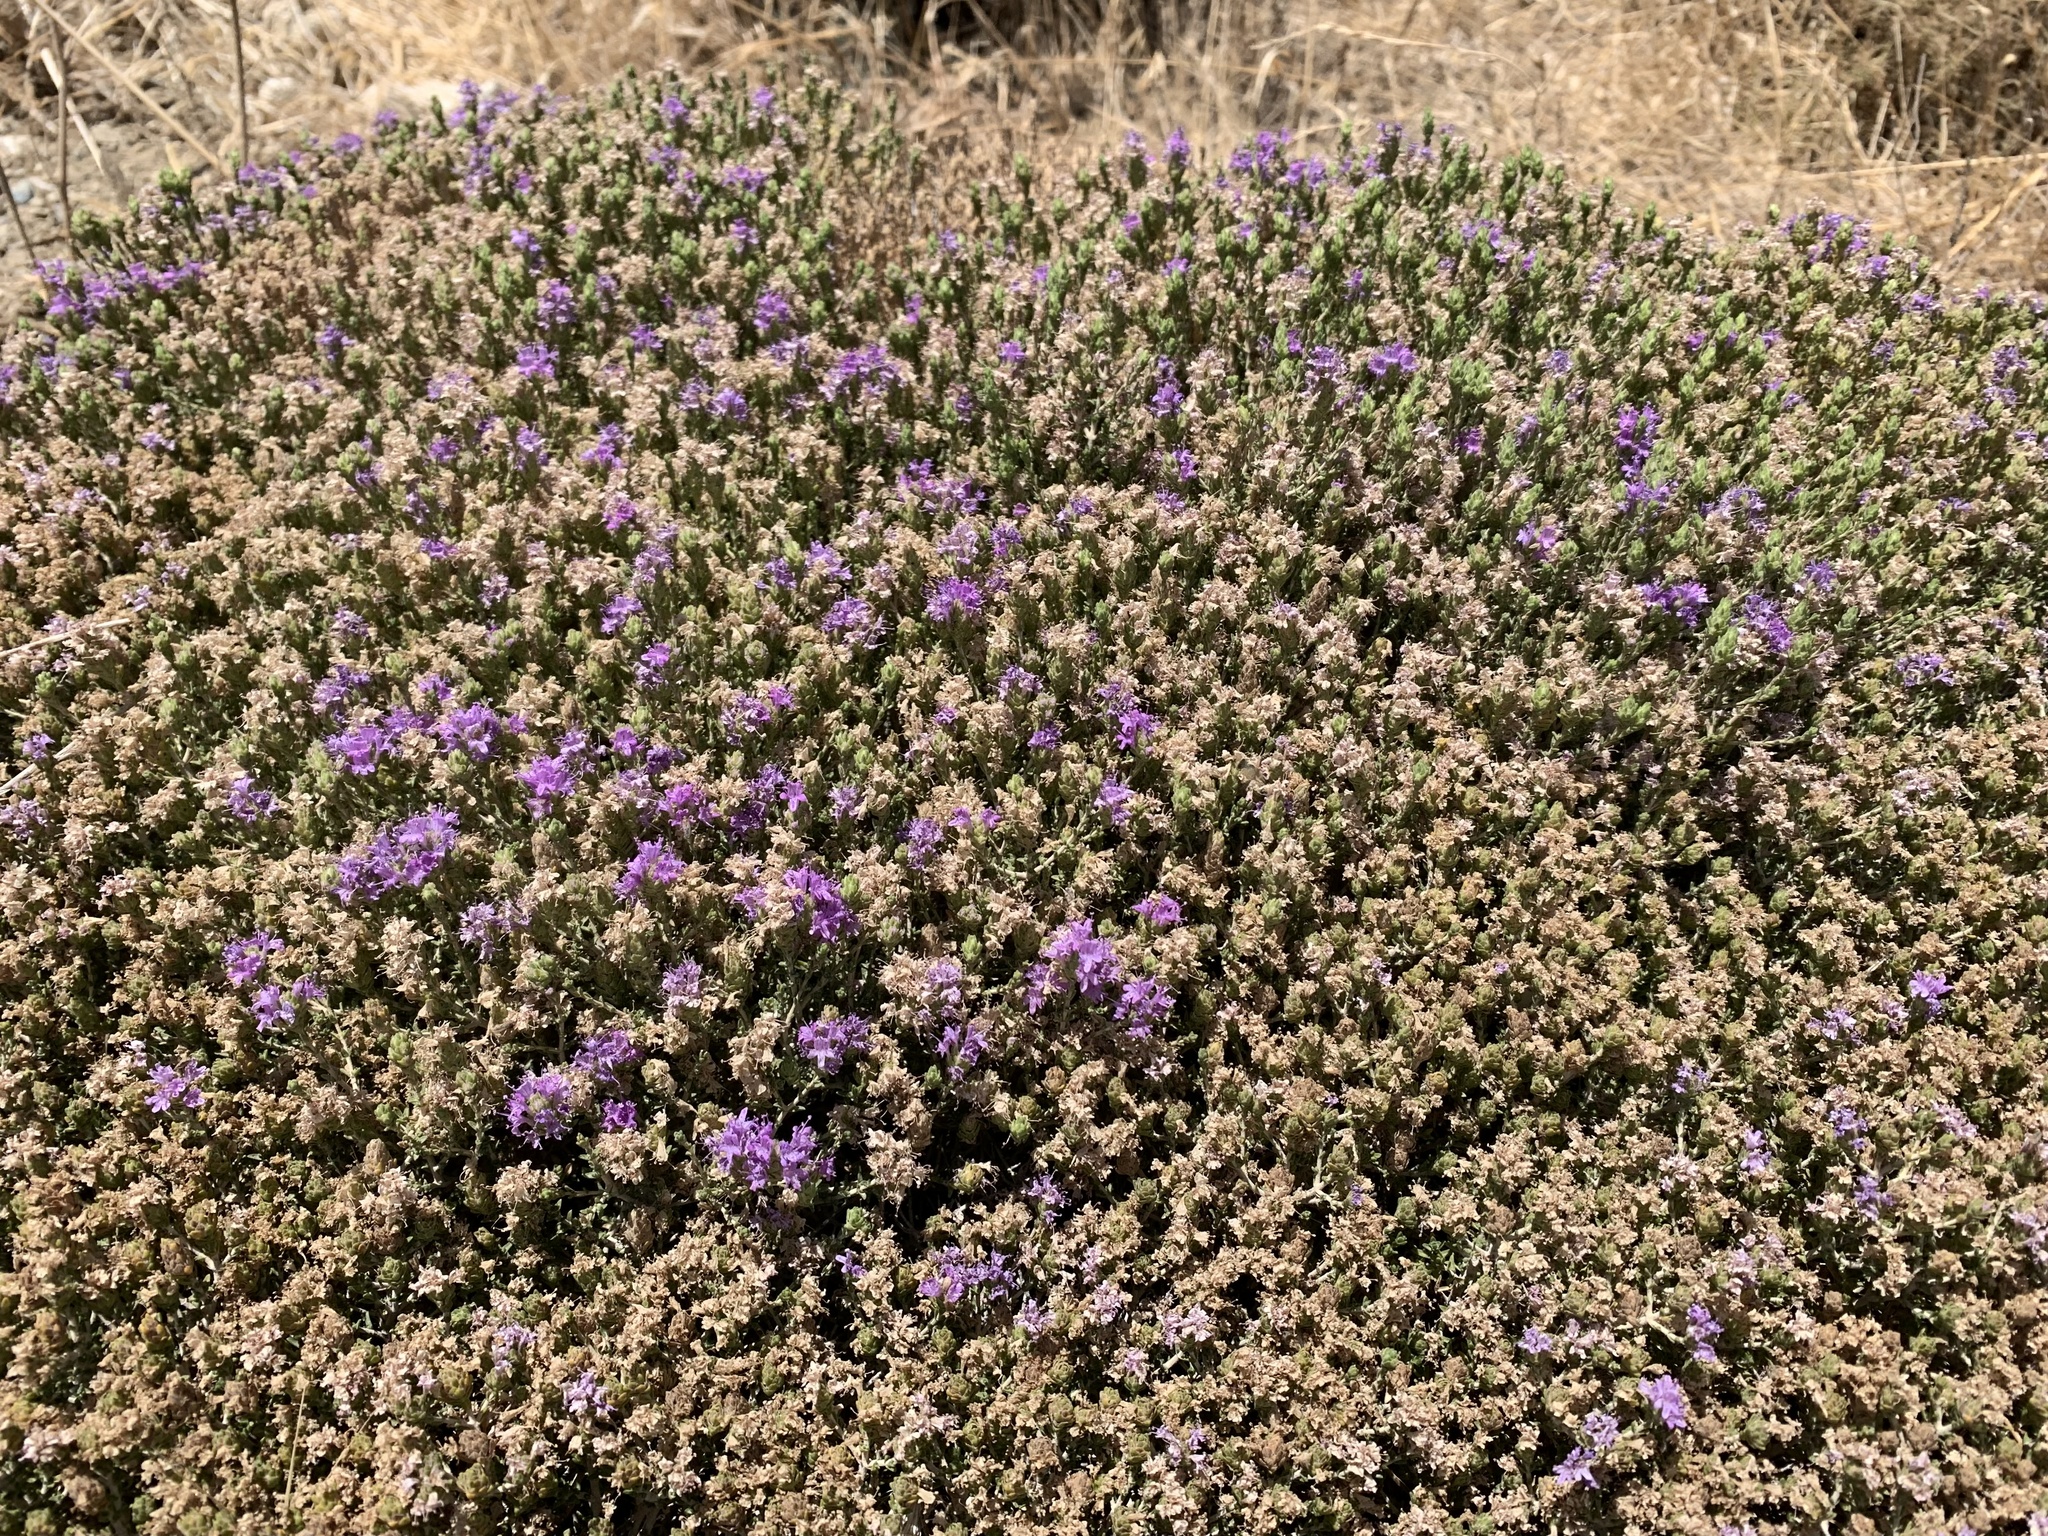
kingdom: Plantae
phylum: Tracheophyta
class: Magnoliopsida
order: Lamiales
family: Lamiaceae
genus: Thymbra
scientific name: Thymbra capitata
